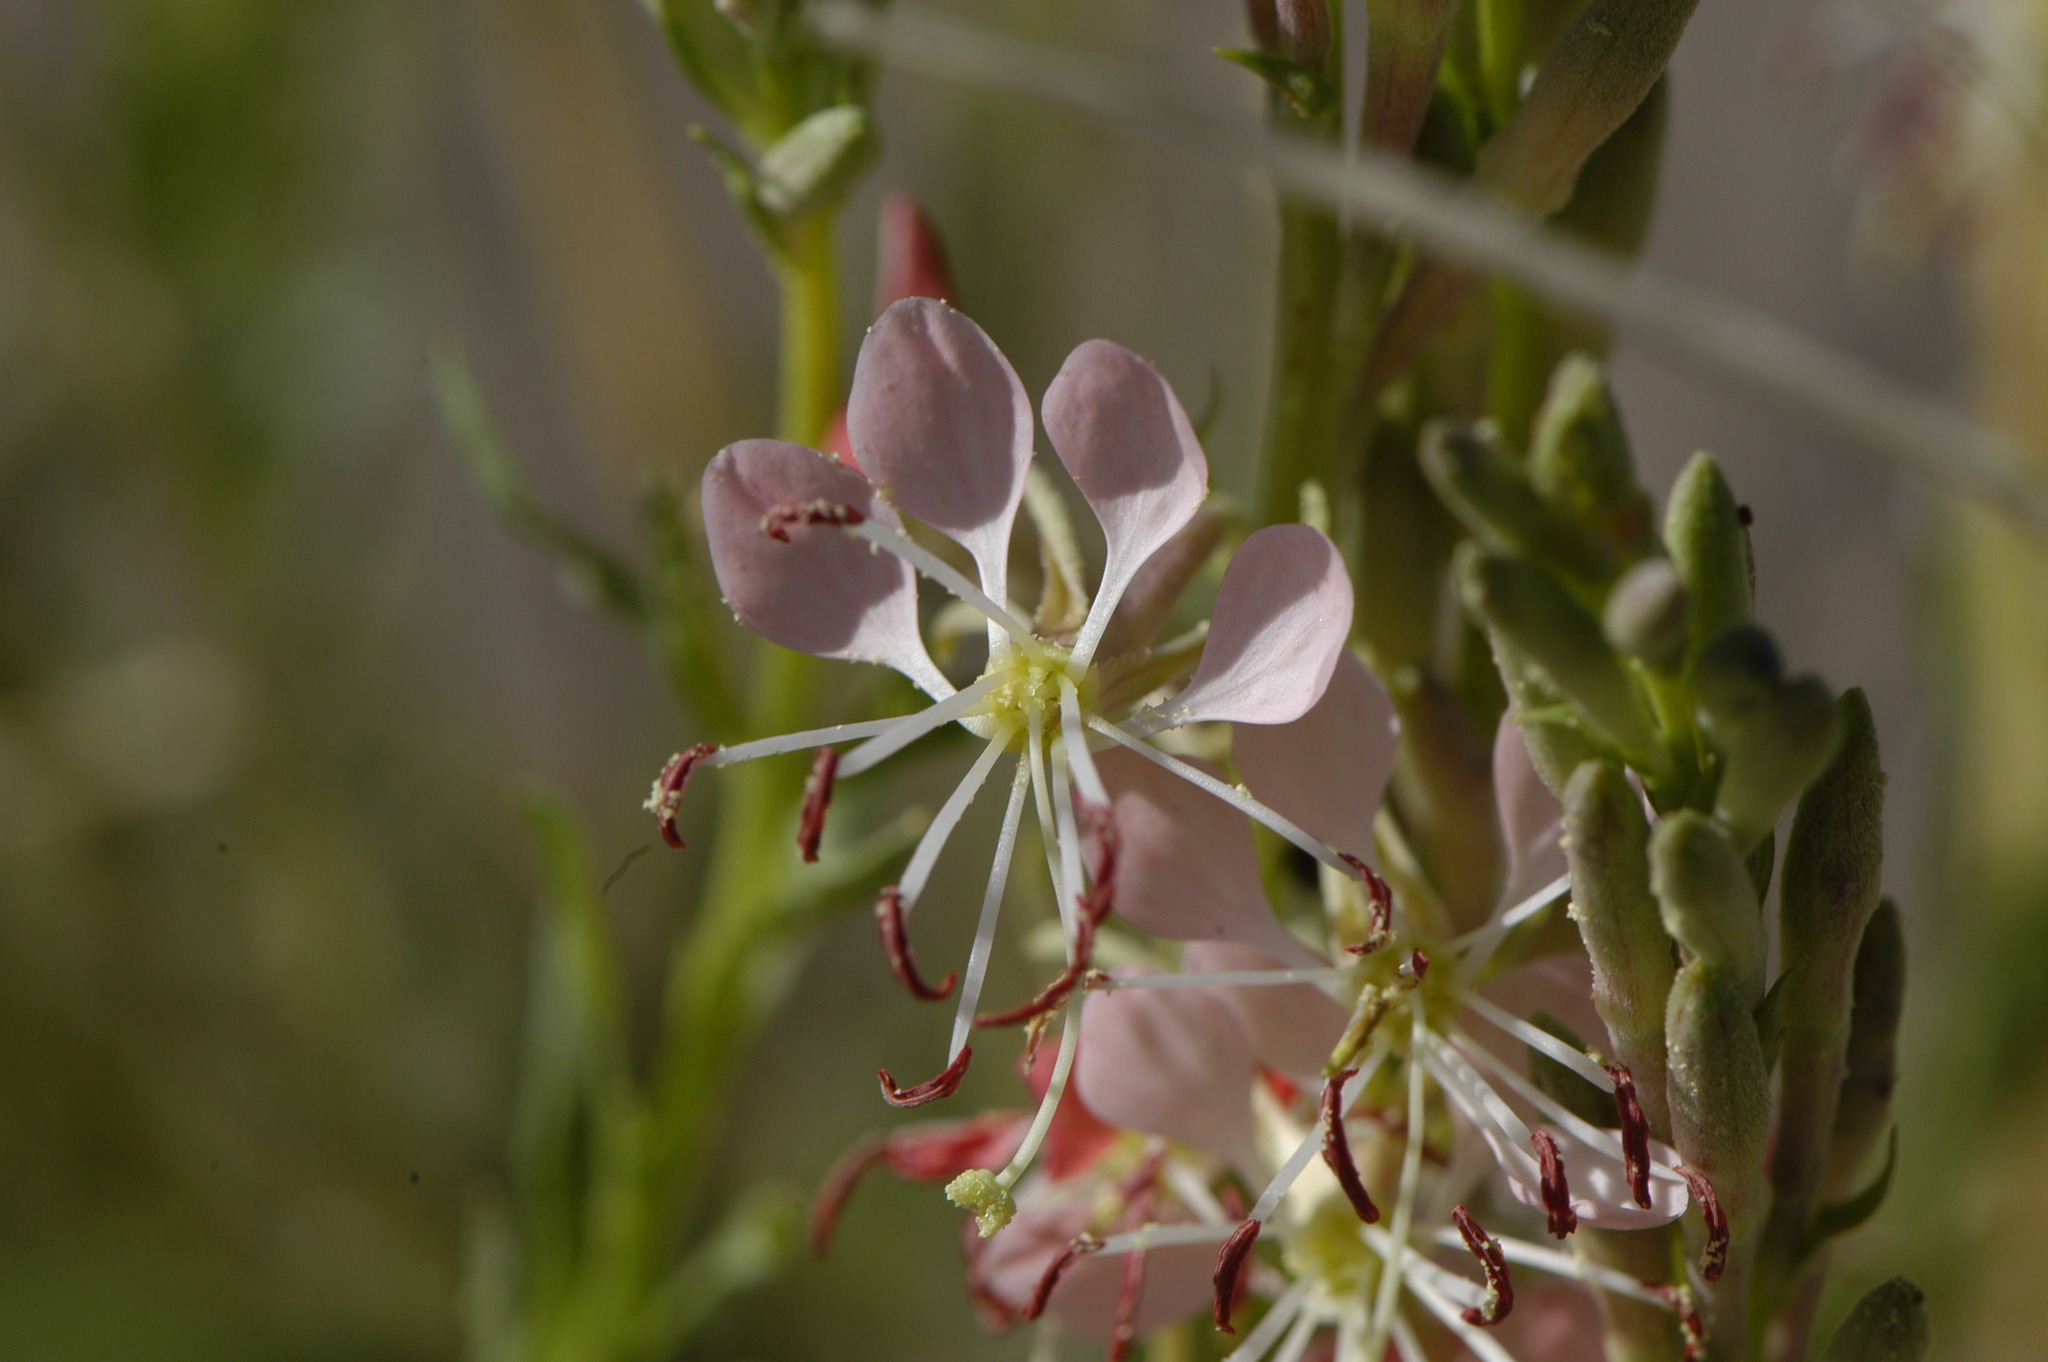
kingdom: Plantae
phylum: Tracheophyta
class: Magnoliopsida
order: Myrtales
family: Onagraceae
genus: Oenothera
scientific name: Oenothera suffrutescens
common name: Scarlet beeblossom
